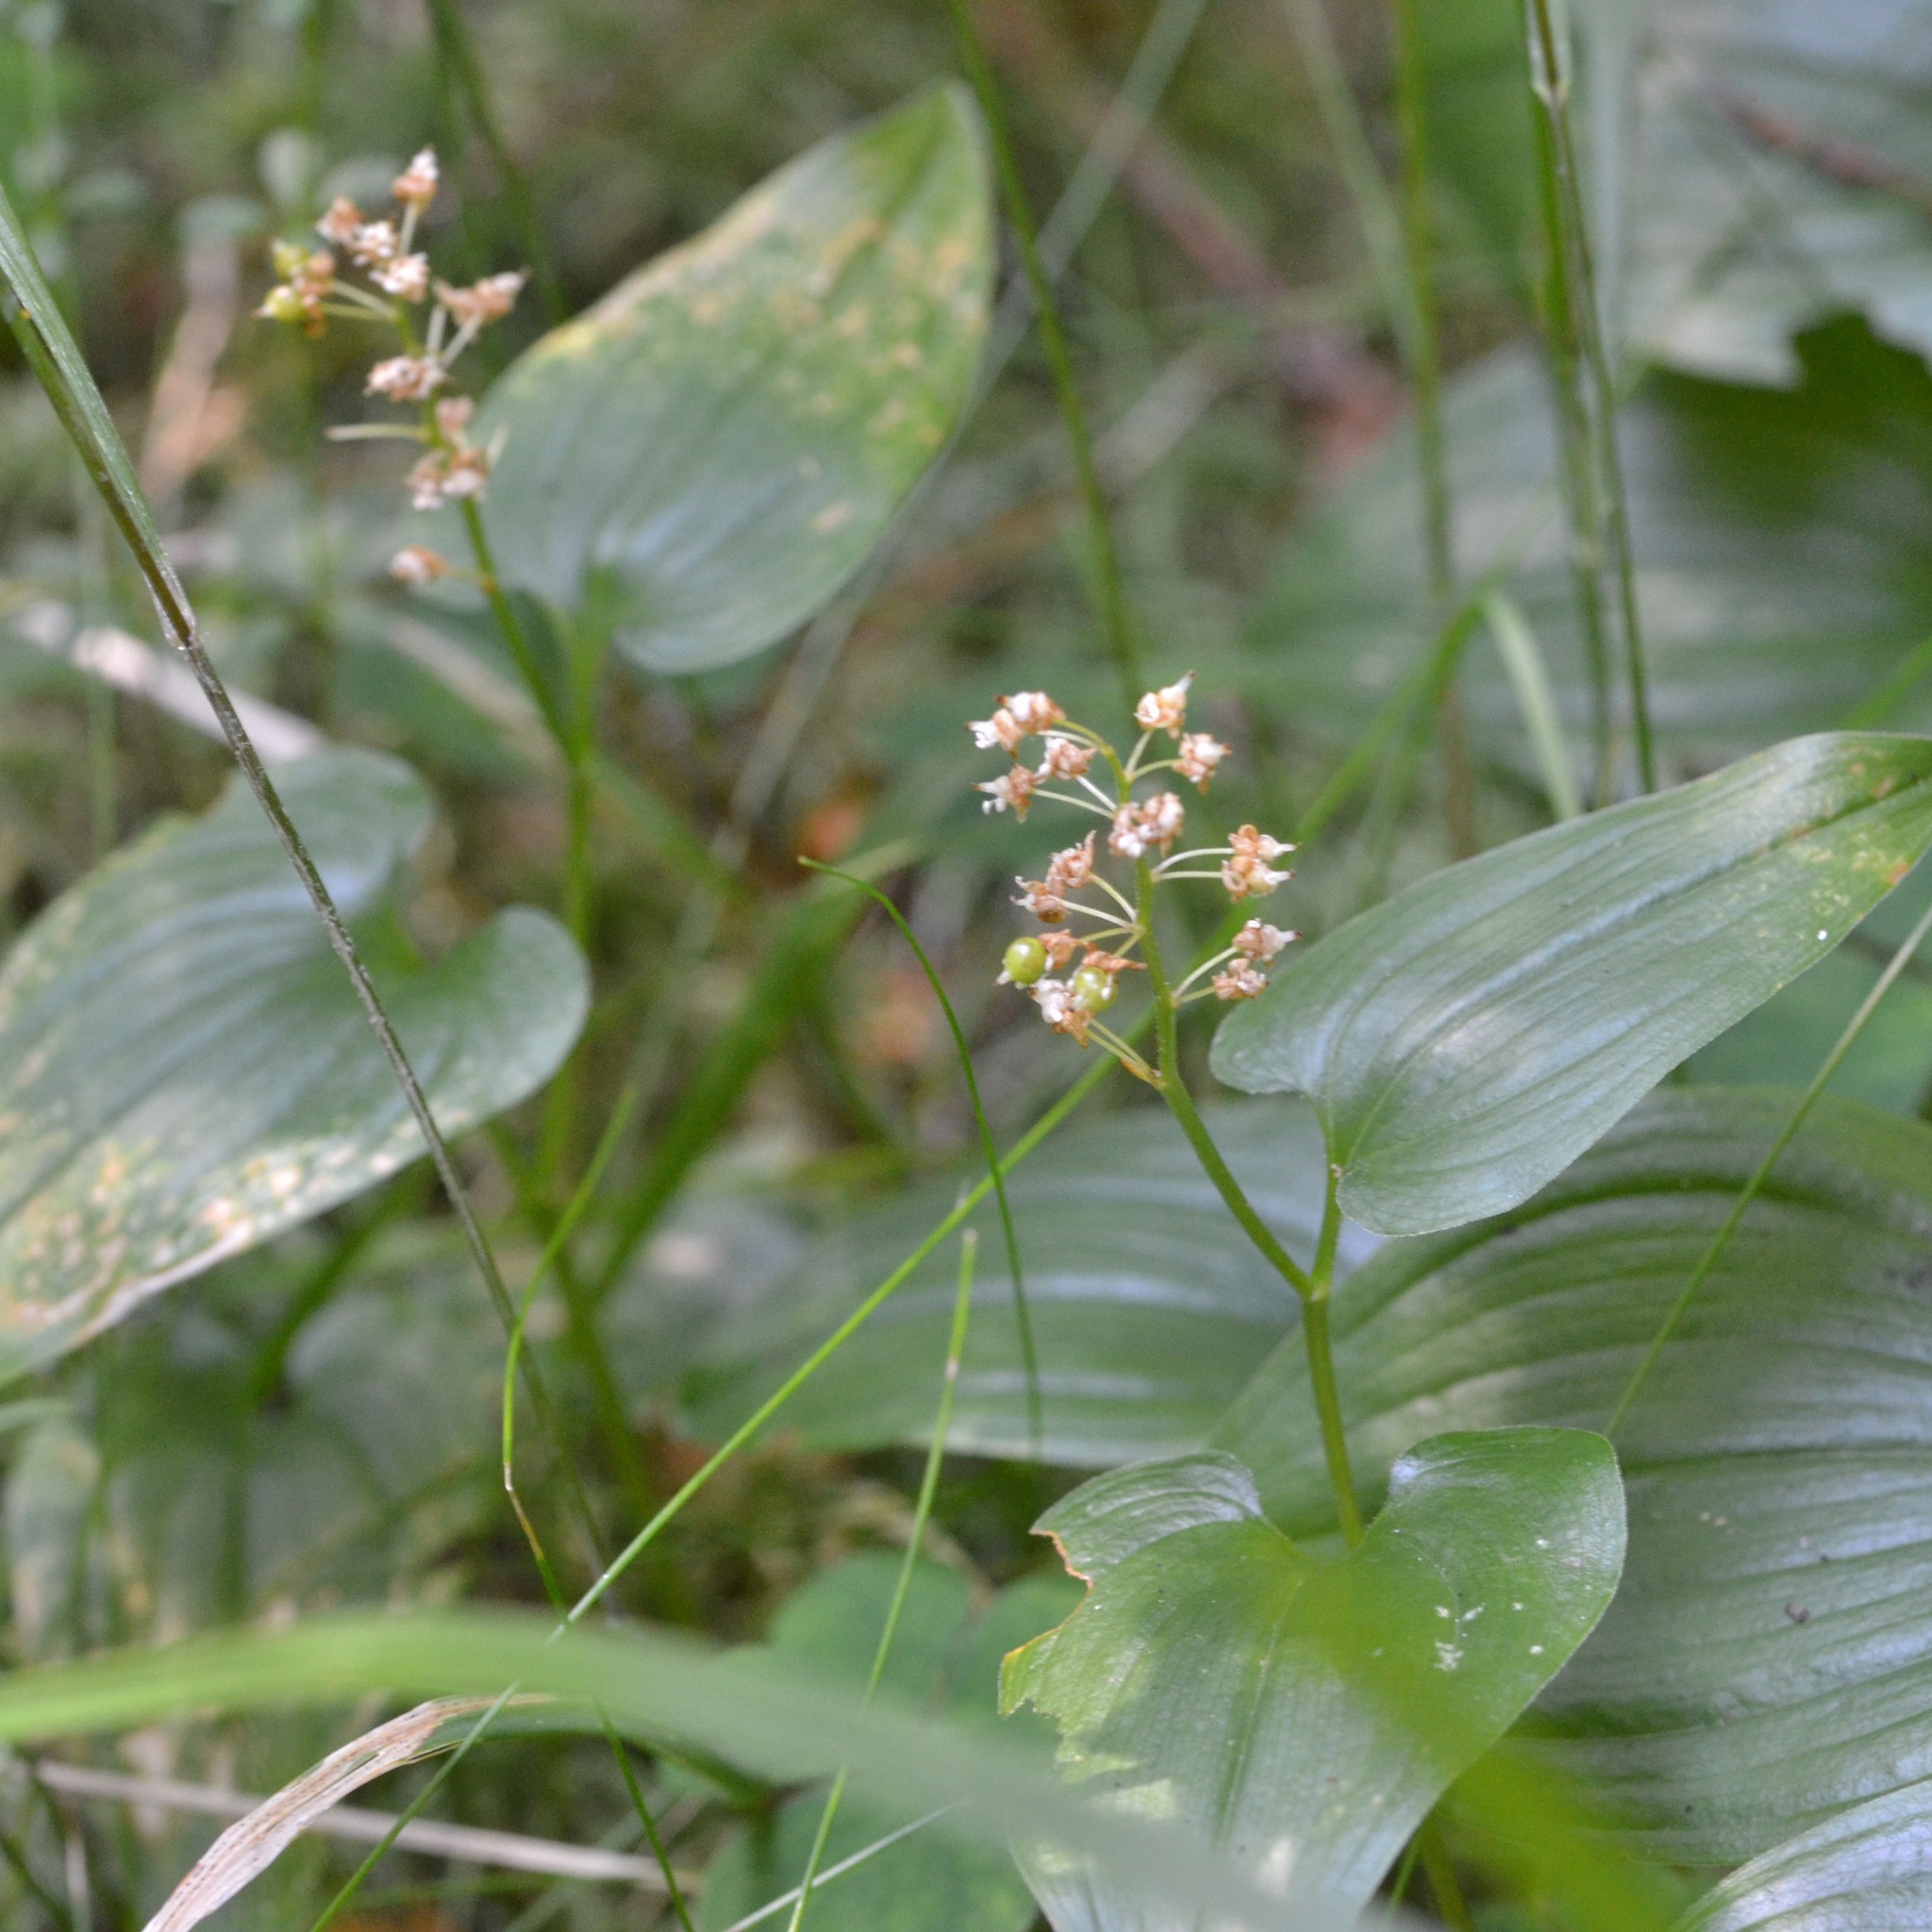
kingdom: Plantae
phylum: Tracheophyta
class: Liliopsida
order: Asparagales
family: Asparagaceae
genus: Maianthemum
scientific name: Maianthemum bifolium
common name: May lily
